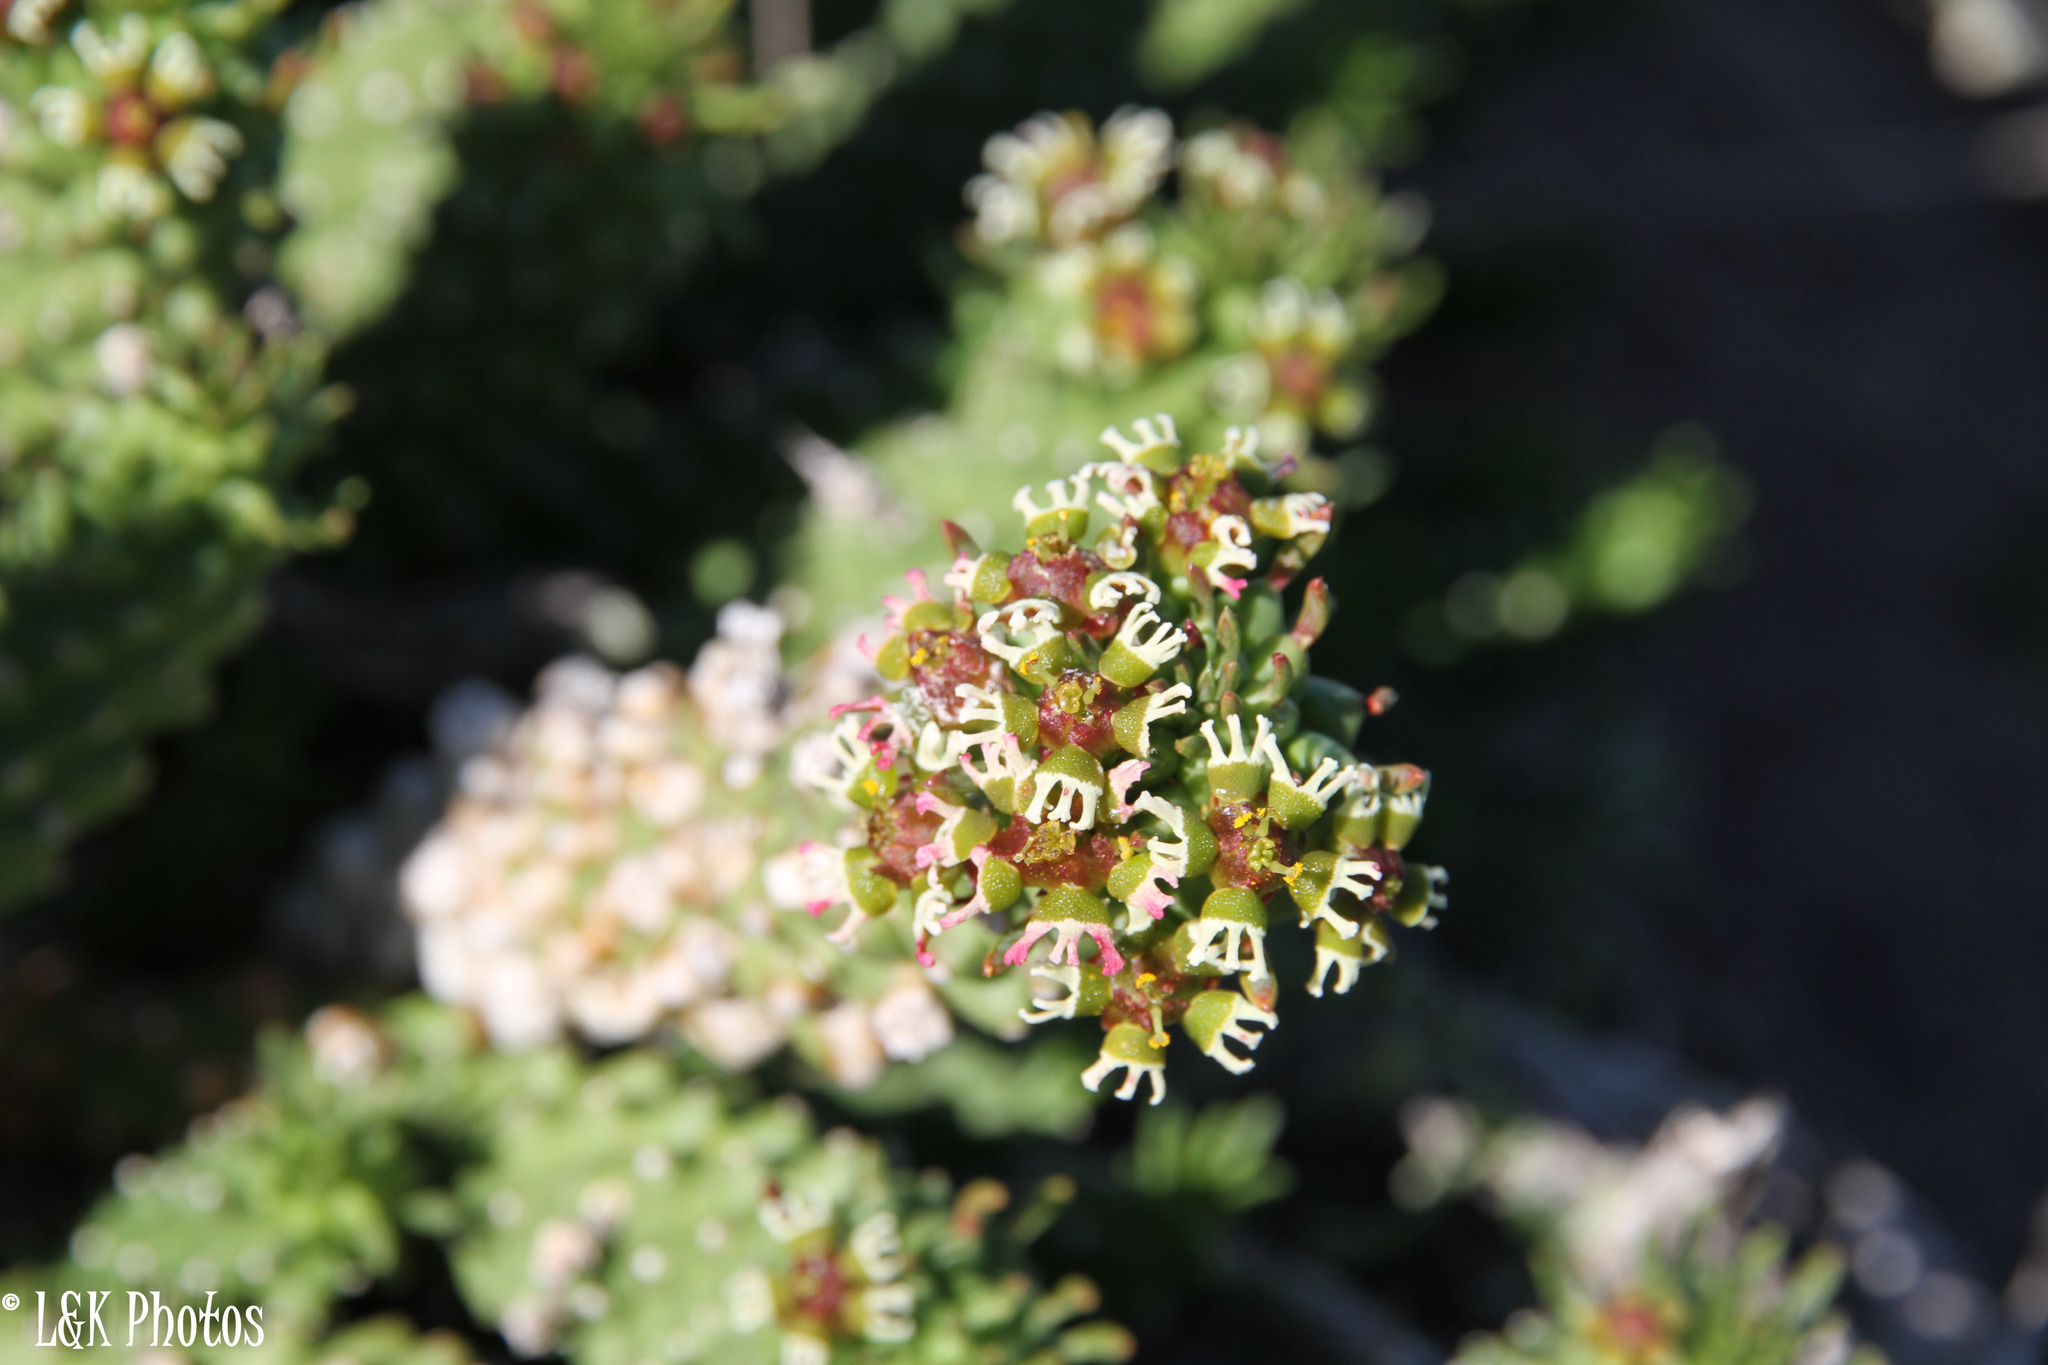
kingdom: Plantae
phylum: Tracheophyta
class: Magnoliopsida
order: Malpighiales
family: Euphorbiaceae
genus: Euphorbia
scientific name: Euphorbia caput-medusae
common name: Medusa's-head
